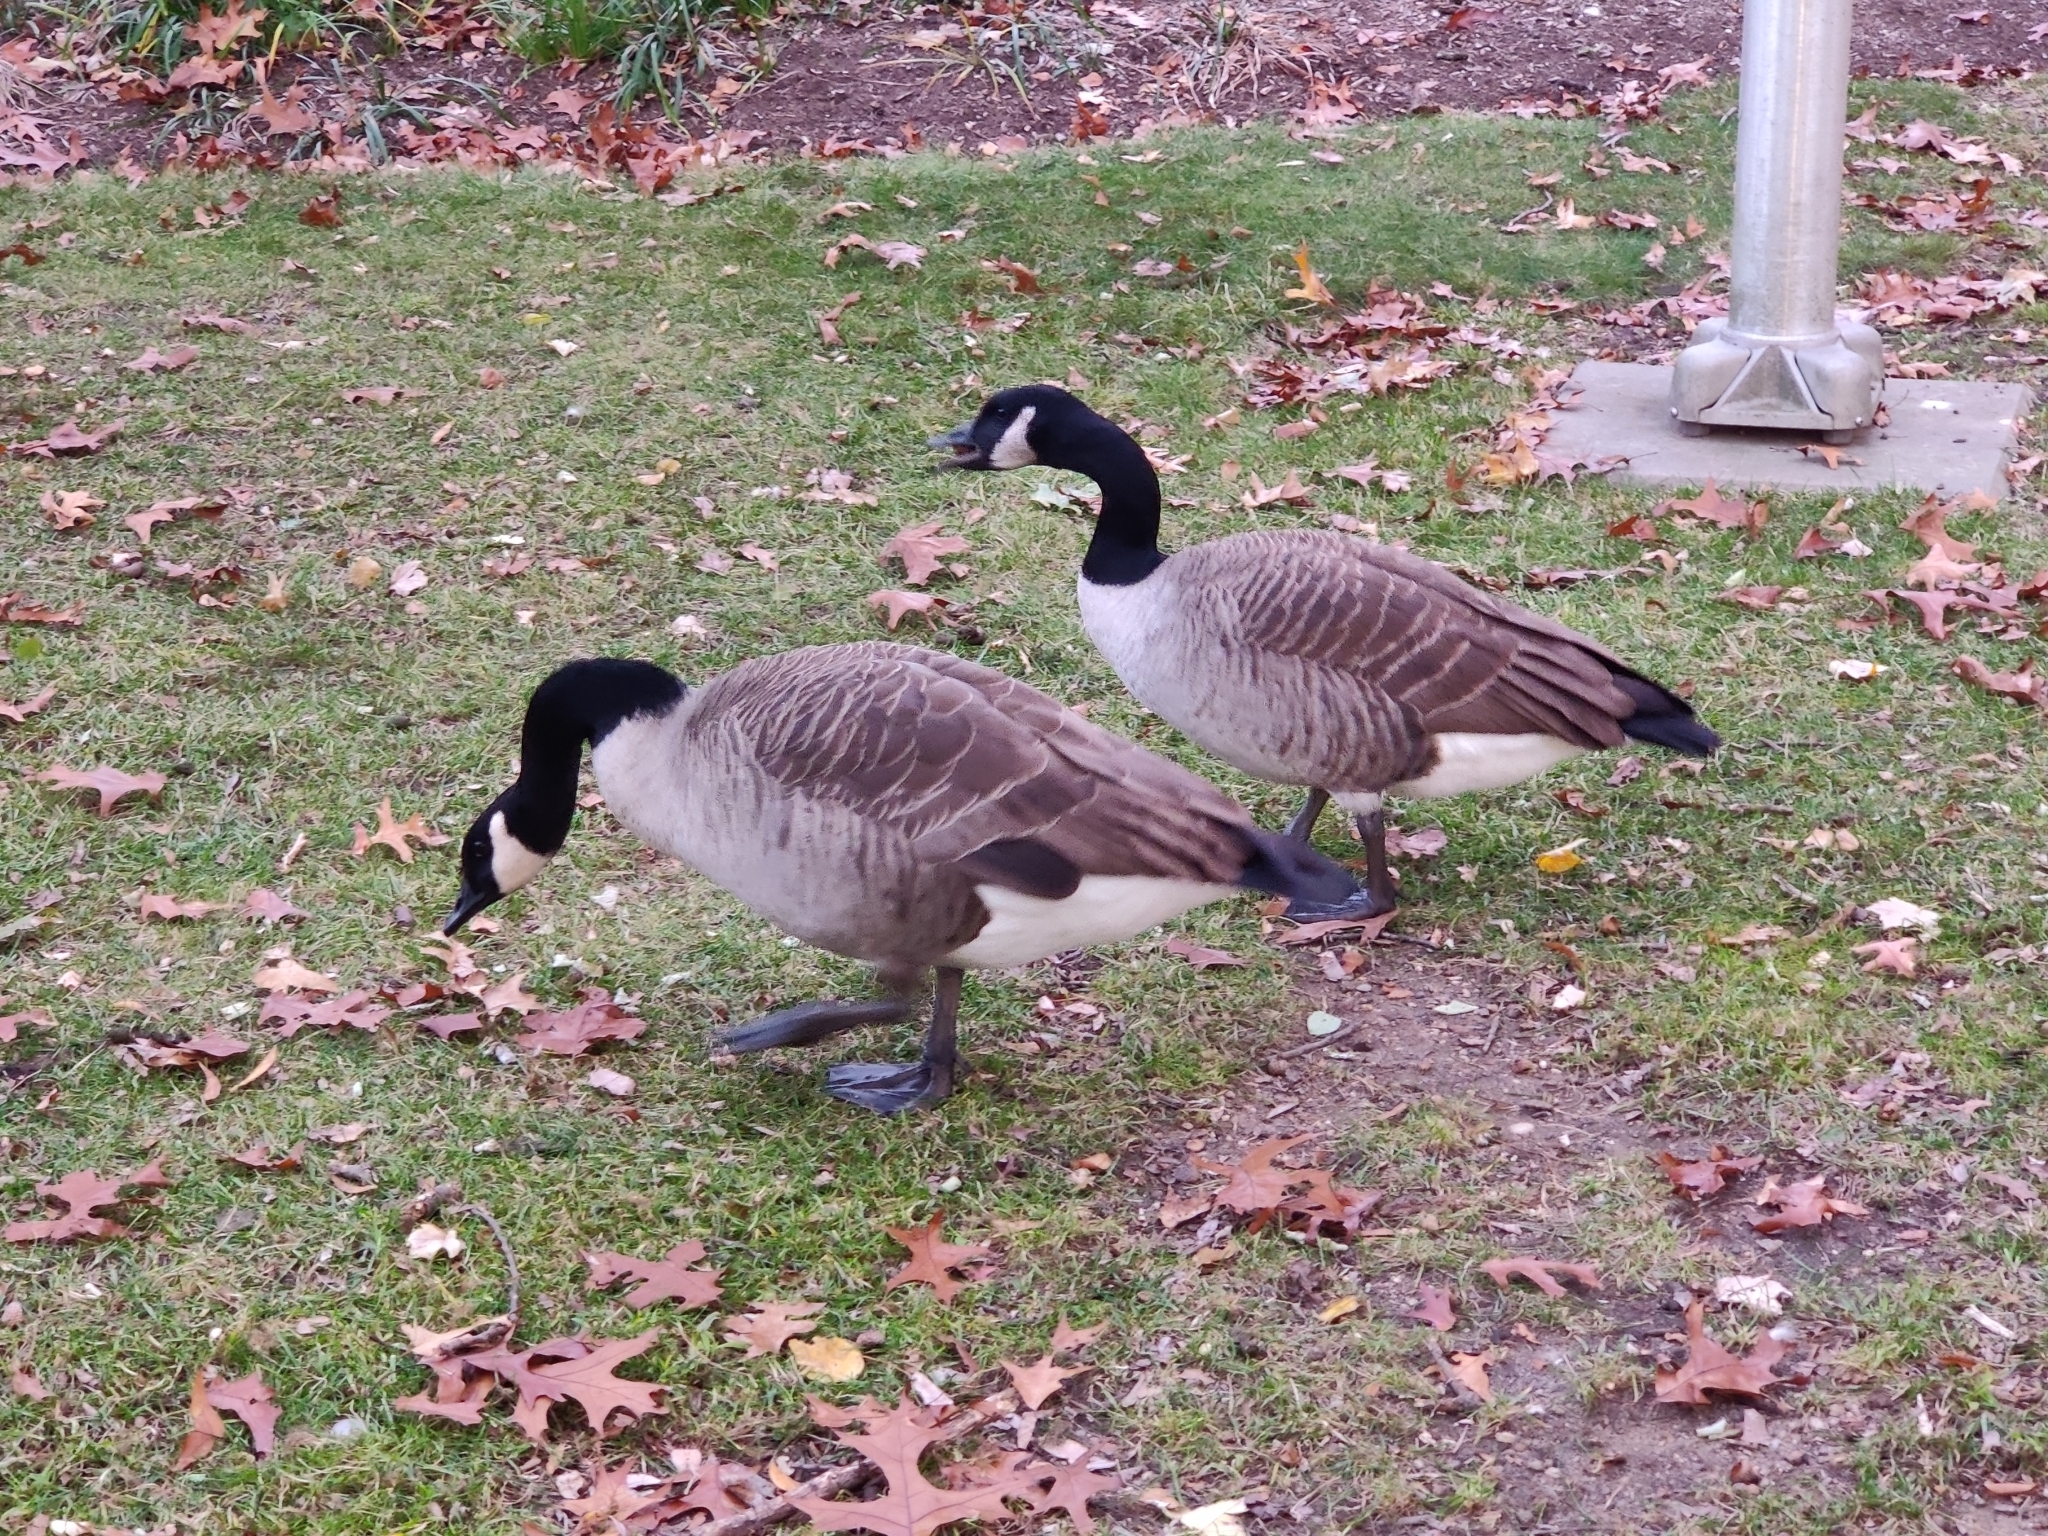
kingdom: Animalia
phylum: Chordata
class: Aves
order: Anseriformes
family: Anatidae
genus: Branta
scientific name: Branta canadensis
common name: Canada goose
